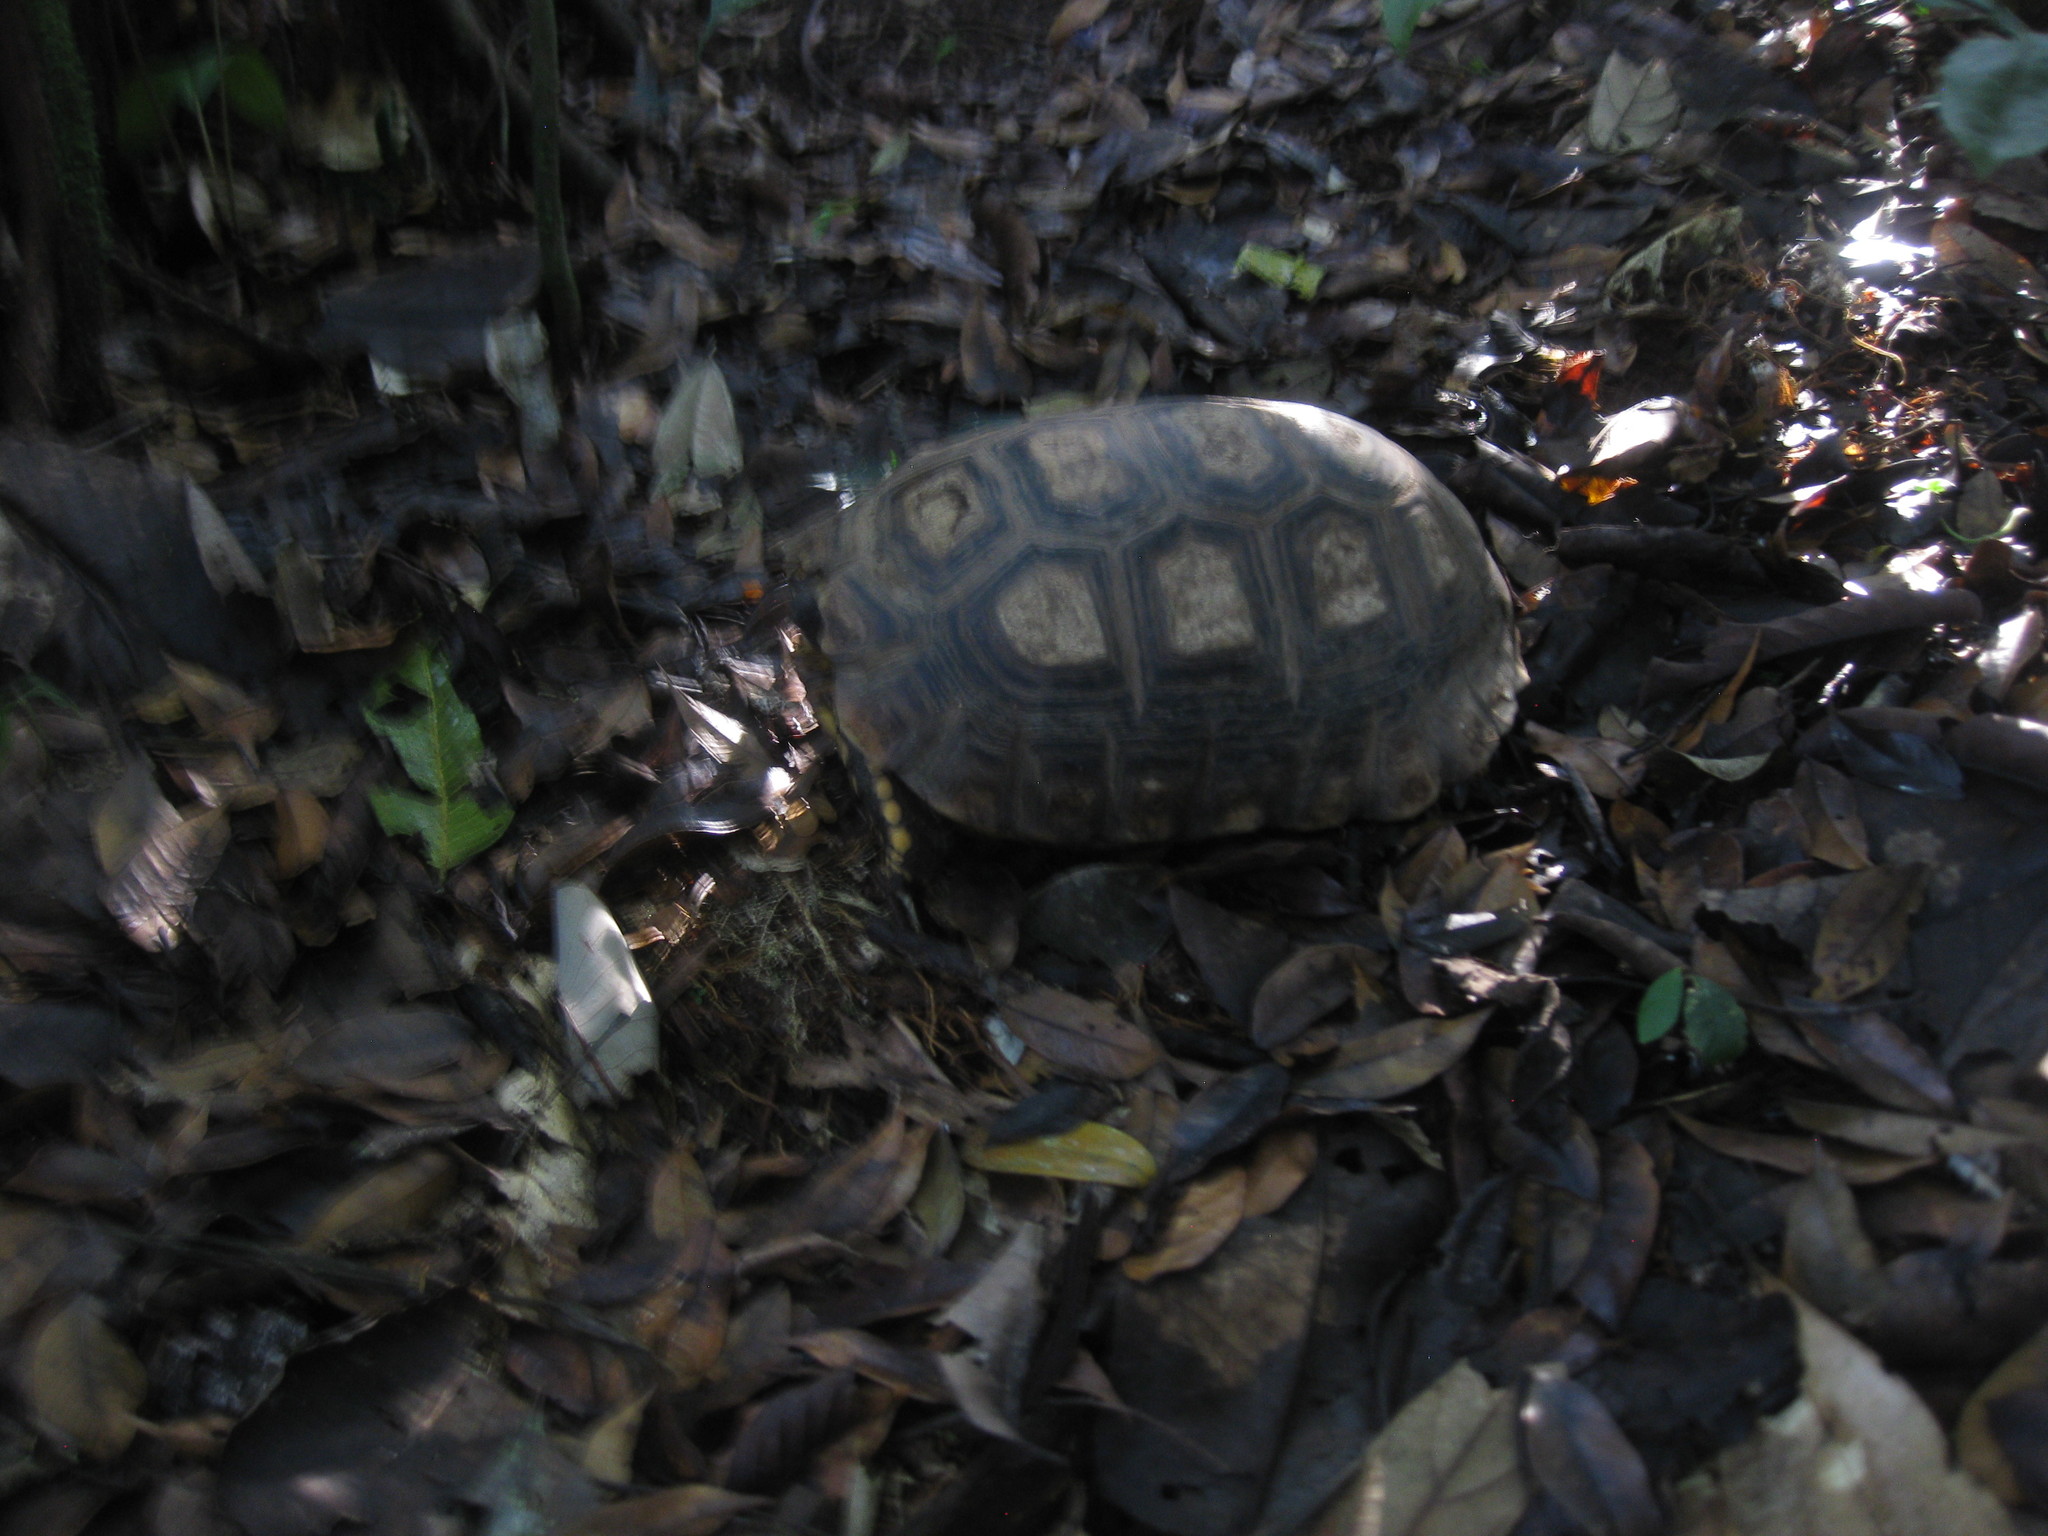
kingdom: Animalia
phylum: Chordata
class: Testudines
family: Testudinidae
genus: Chelonoidis
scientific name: Chelonoidis denticulatus
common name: Yellow-footed tortoise
